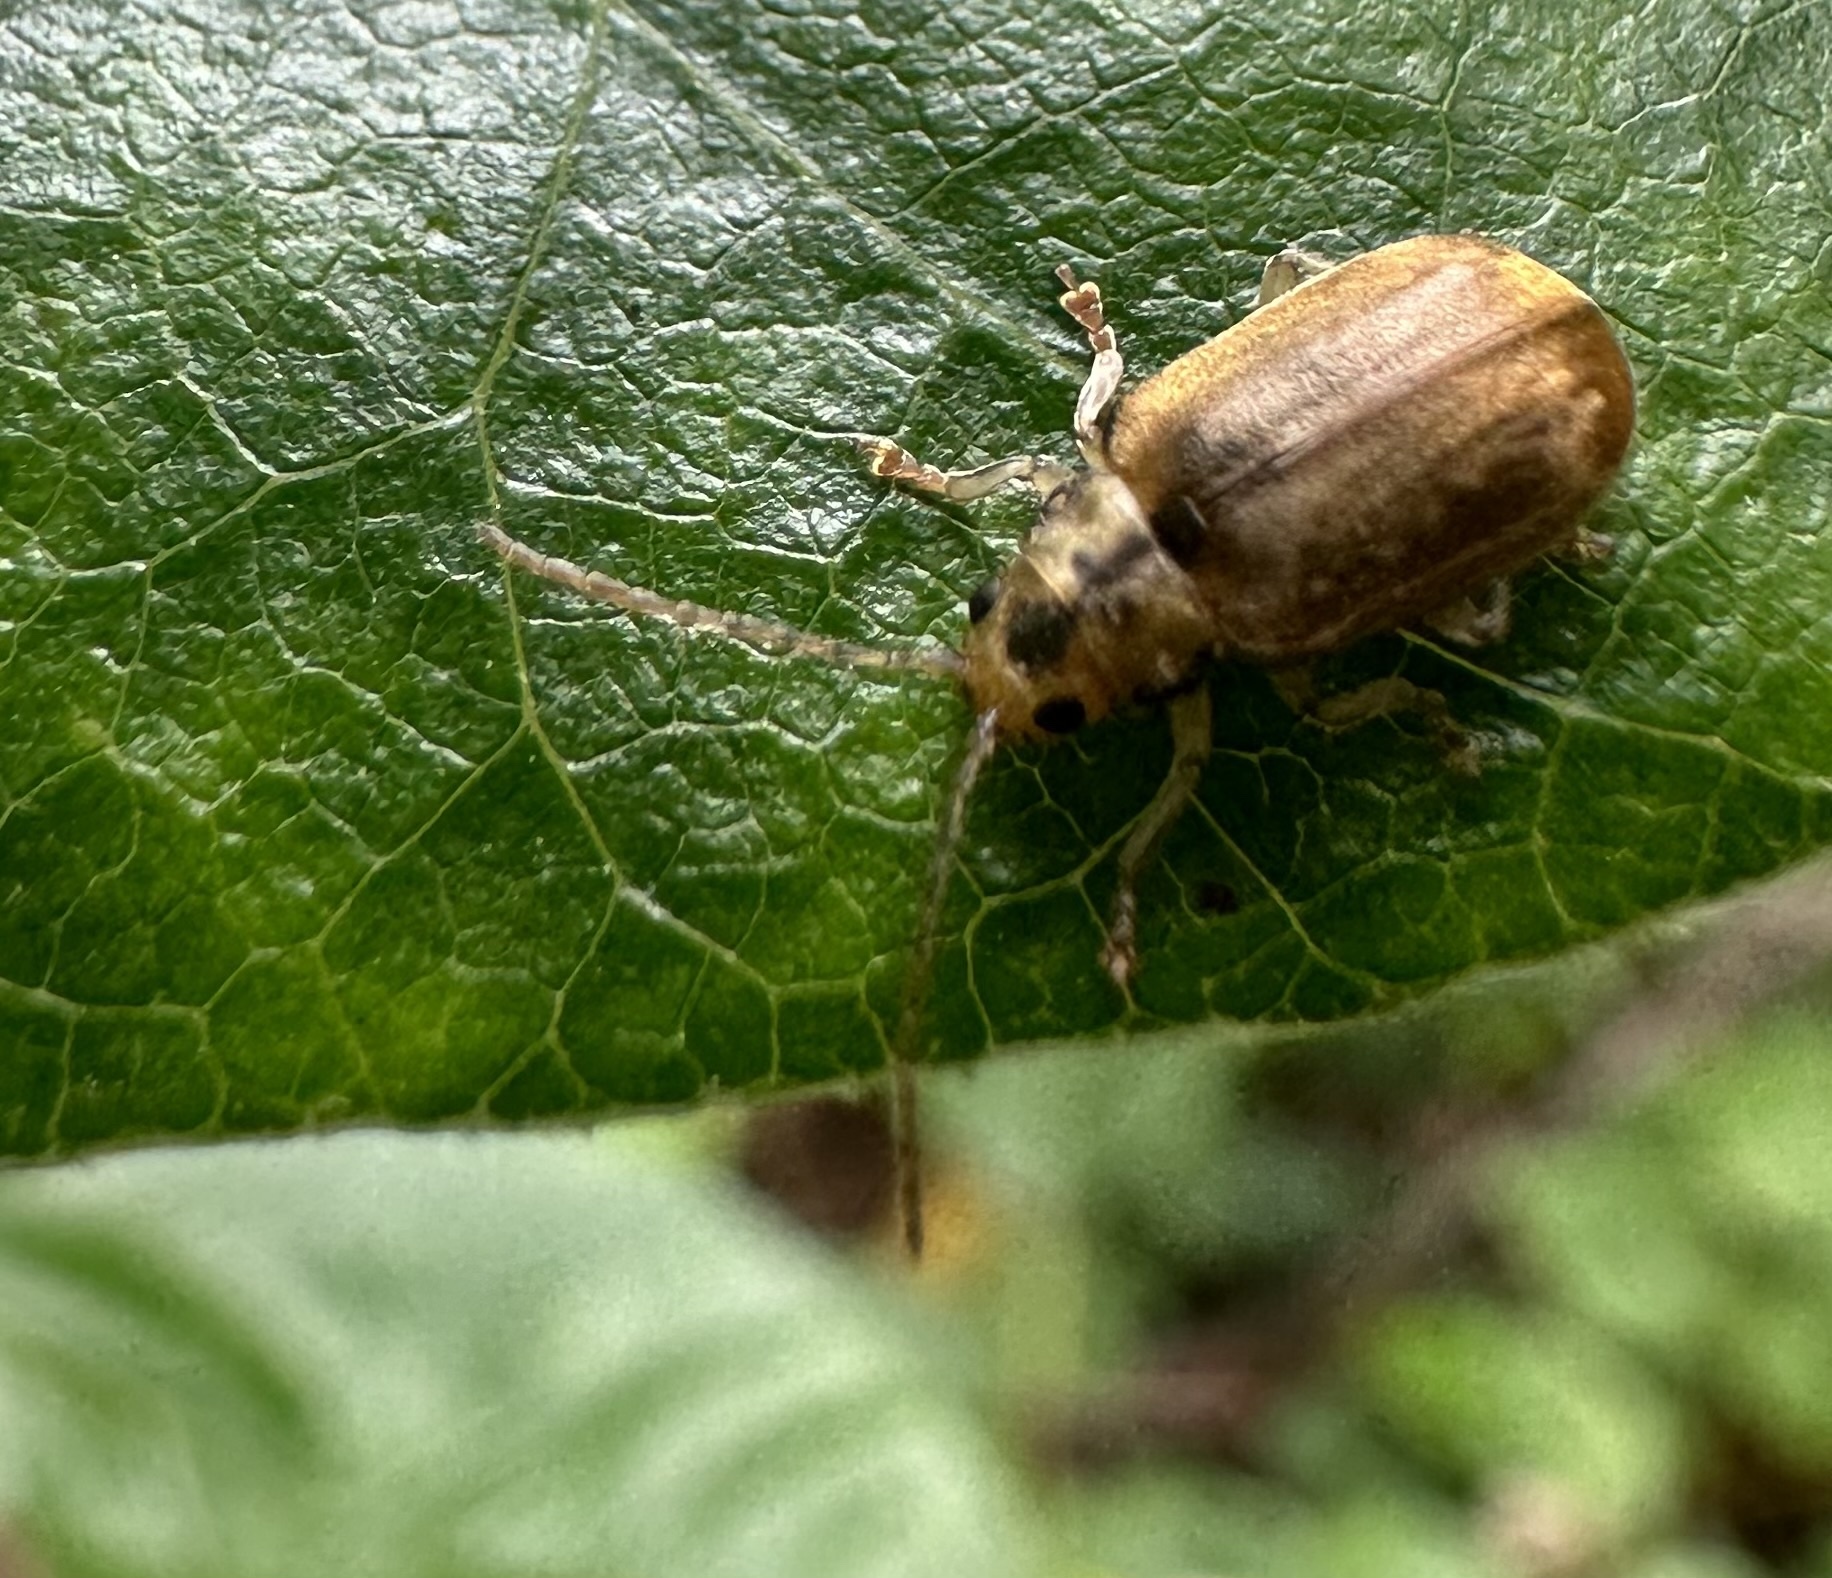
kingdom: Animalia
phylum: Arthropoda
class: Insecta
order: Coleoptera
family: Chrysomelidae
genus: Pyrrhalta
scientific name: Pyrrhalta viburni
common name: Guelder-rose leaf beetle
